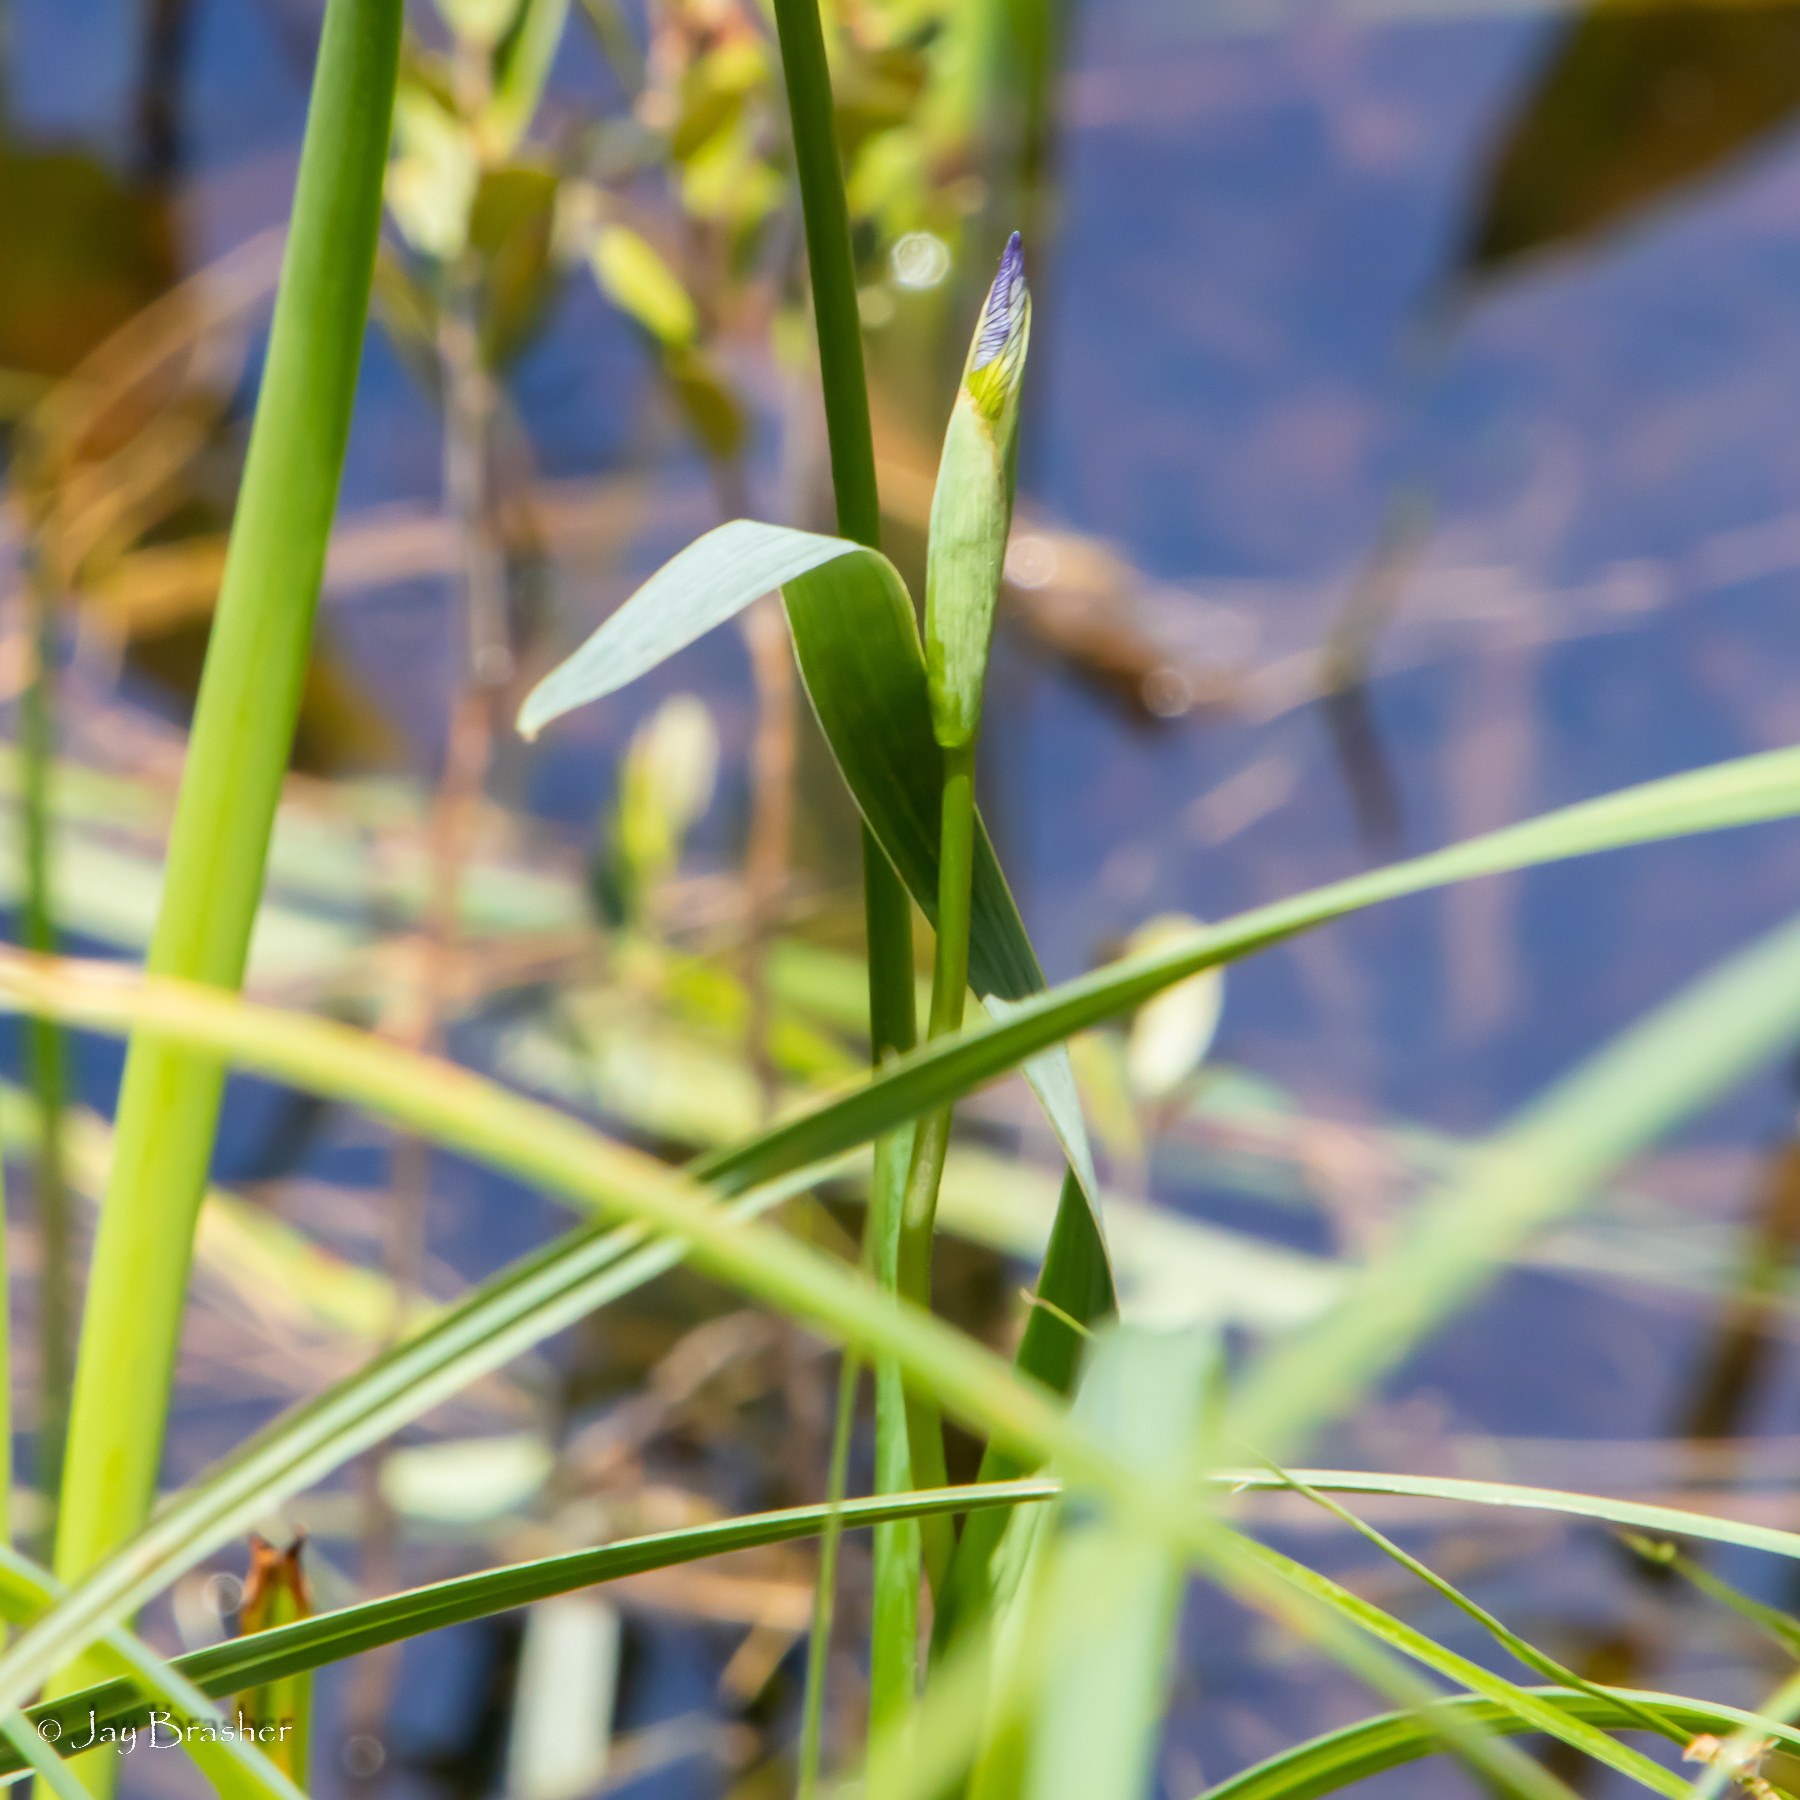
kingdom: Plantae
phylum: Tracheophyta
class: Liliopsida
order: Asparagales
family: Iridaceae
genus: Iris
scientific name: Iris versicolor
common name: Purple iris
